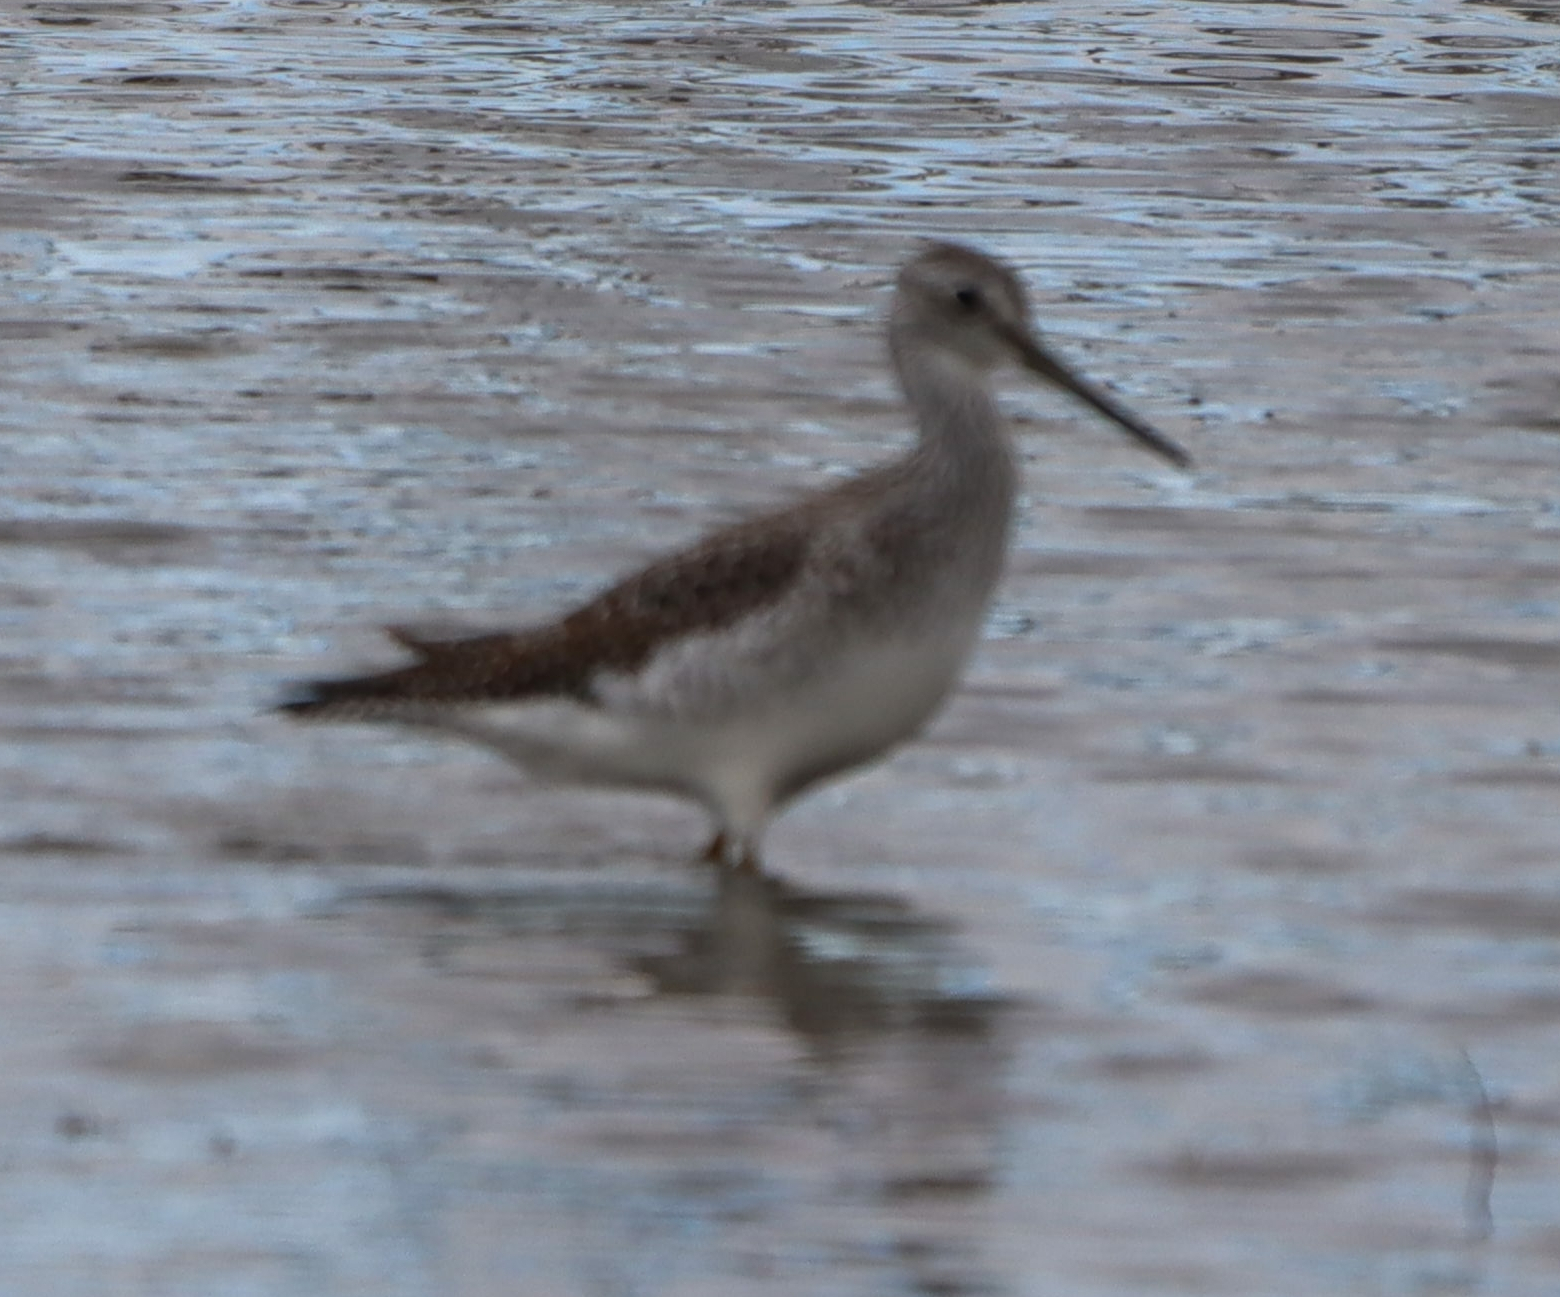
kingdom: Animalia
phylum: Chordata
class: Aves
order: Charadriiformes
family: Scolopacidae
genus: Tringa
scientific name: Tringa melanoleuca
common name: Greater yellowlegs
